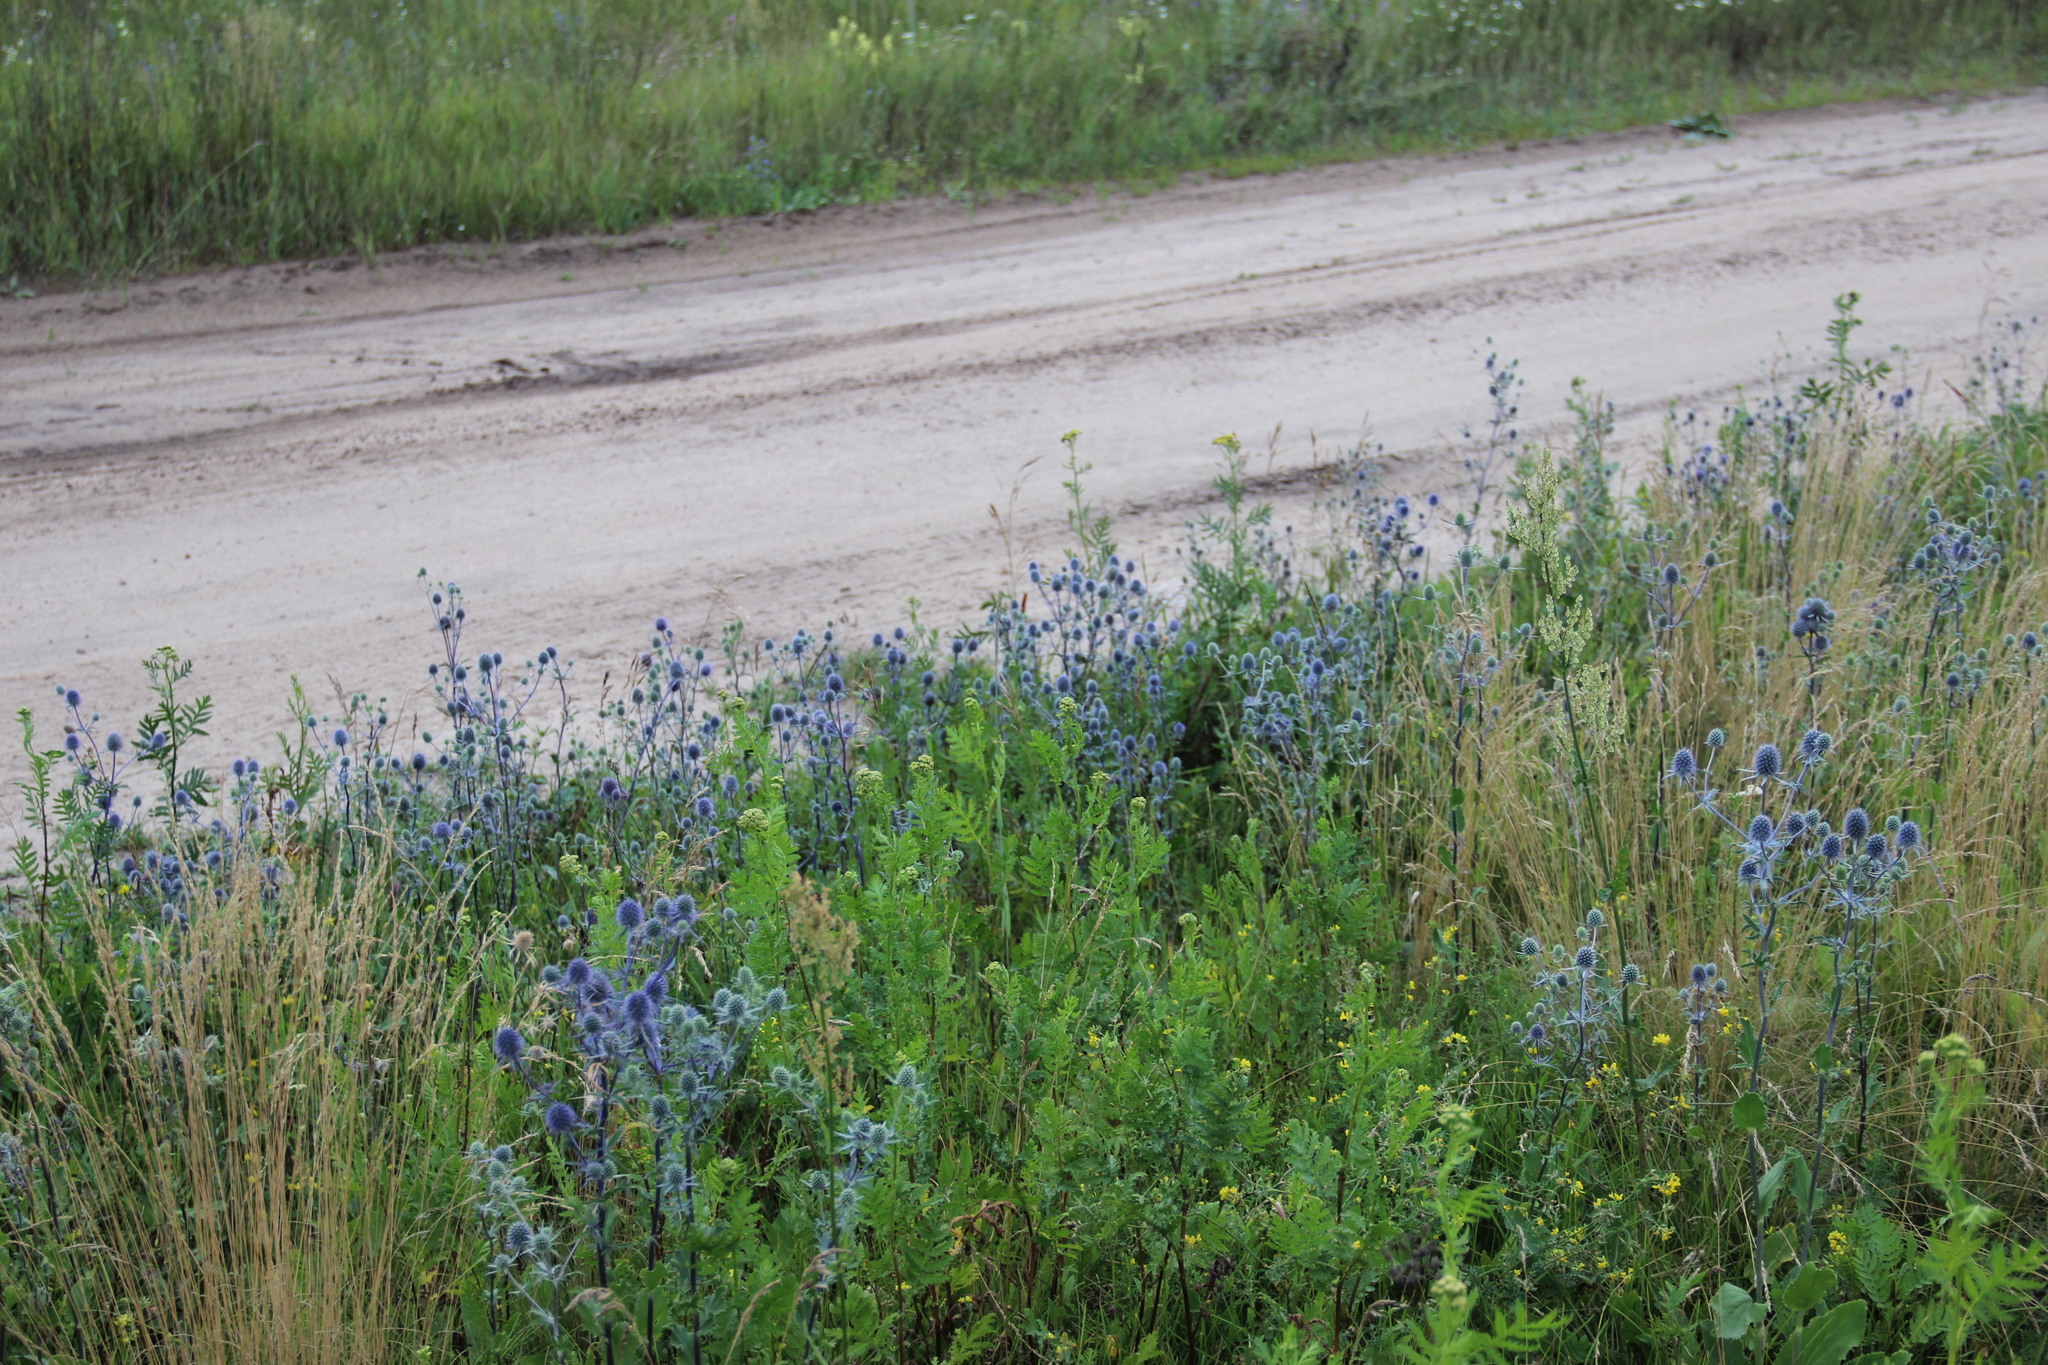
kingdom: Plantae
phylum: Tracheophyta
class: Magnoliopsida
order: Apiales
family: Apiaceae
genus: Eryngium
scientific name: Eryngium planum
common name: Blue eryngo
